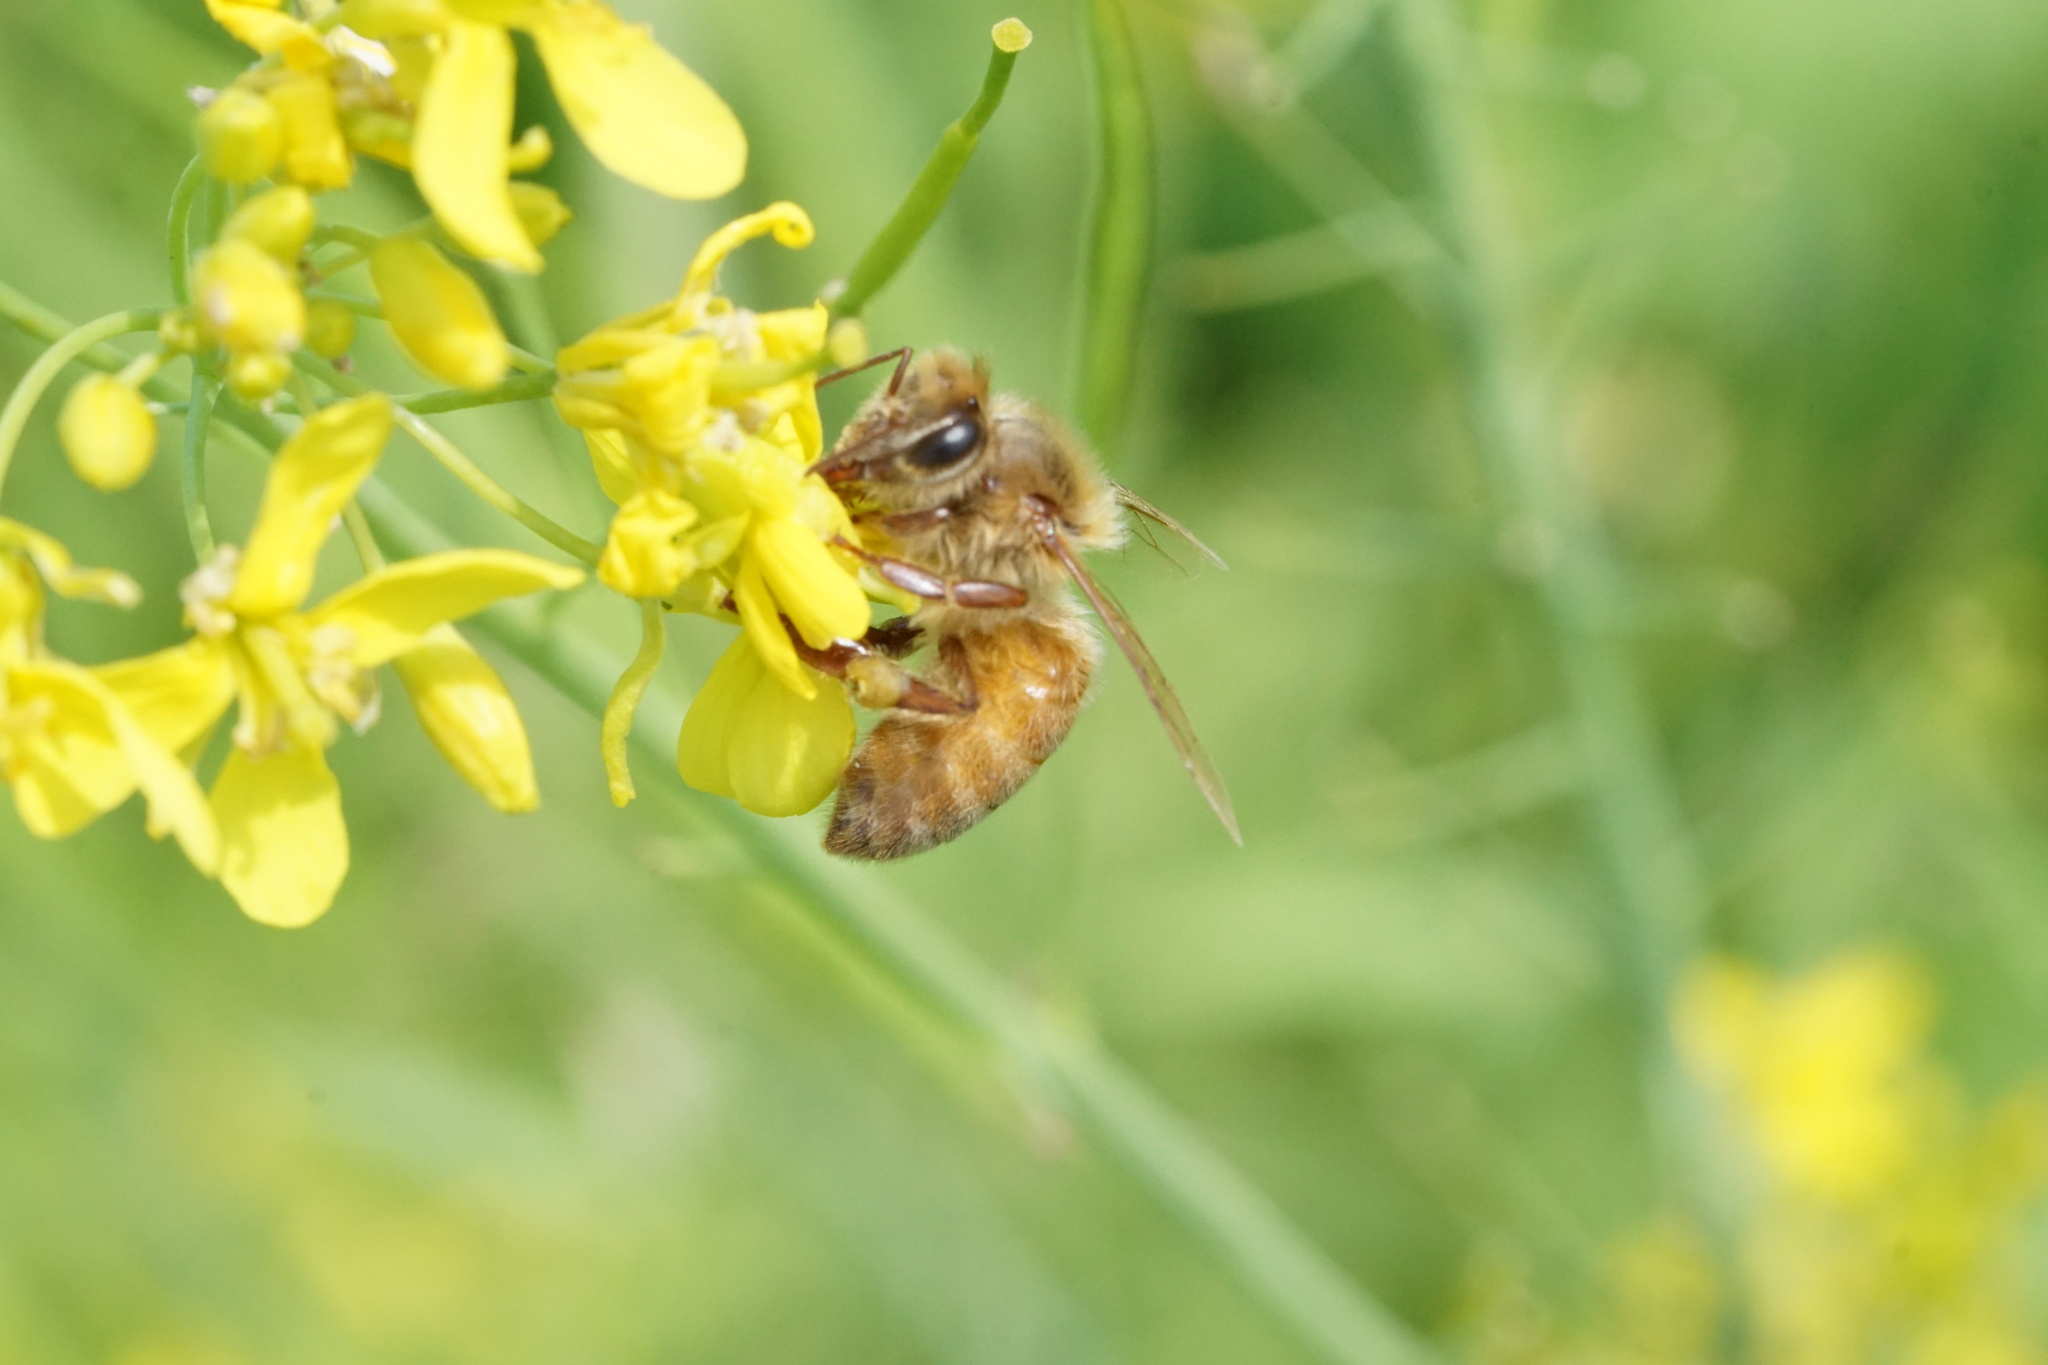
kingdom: Animalia
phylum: Arthropoda
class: Insecta
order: Hymenoptera
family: Apidae
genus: Apis
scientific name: Apis mellifera
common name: Honey bee
